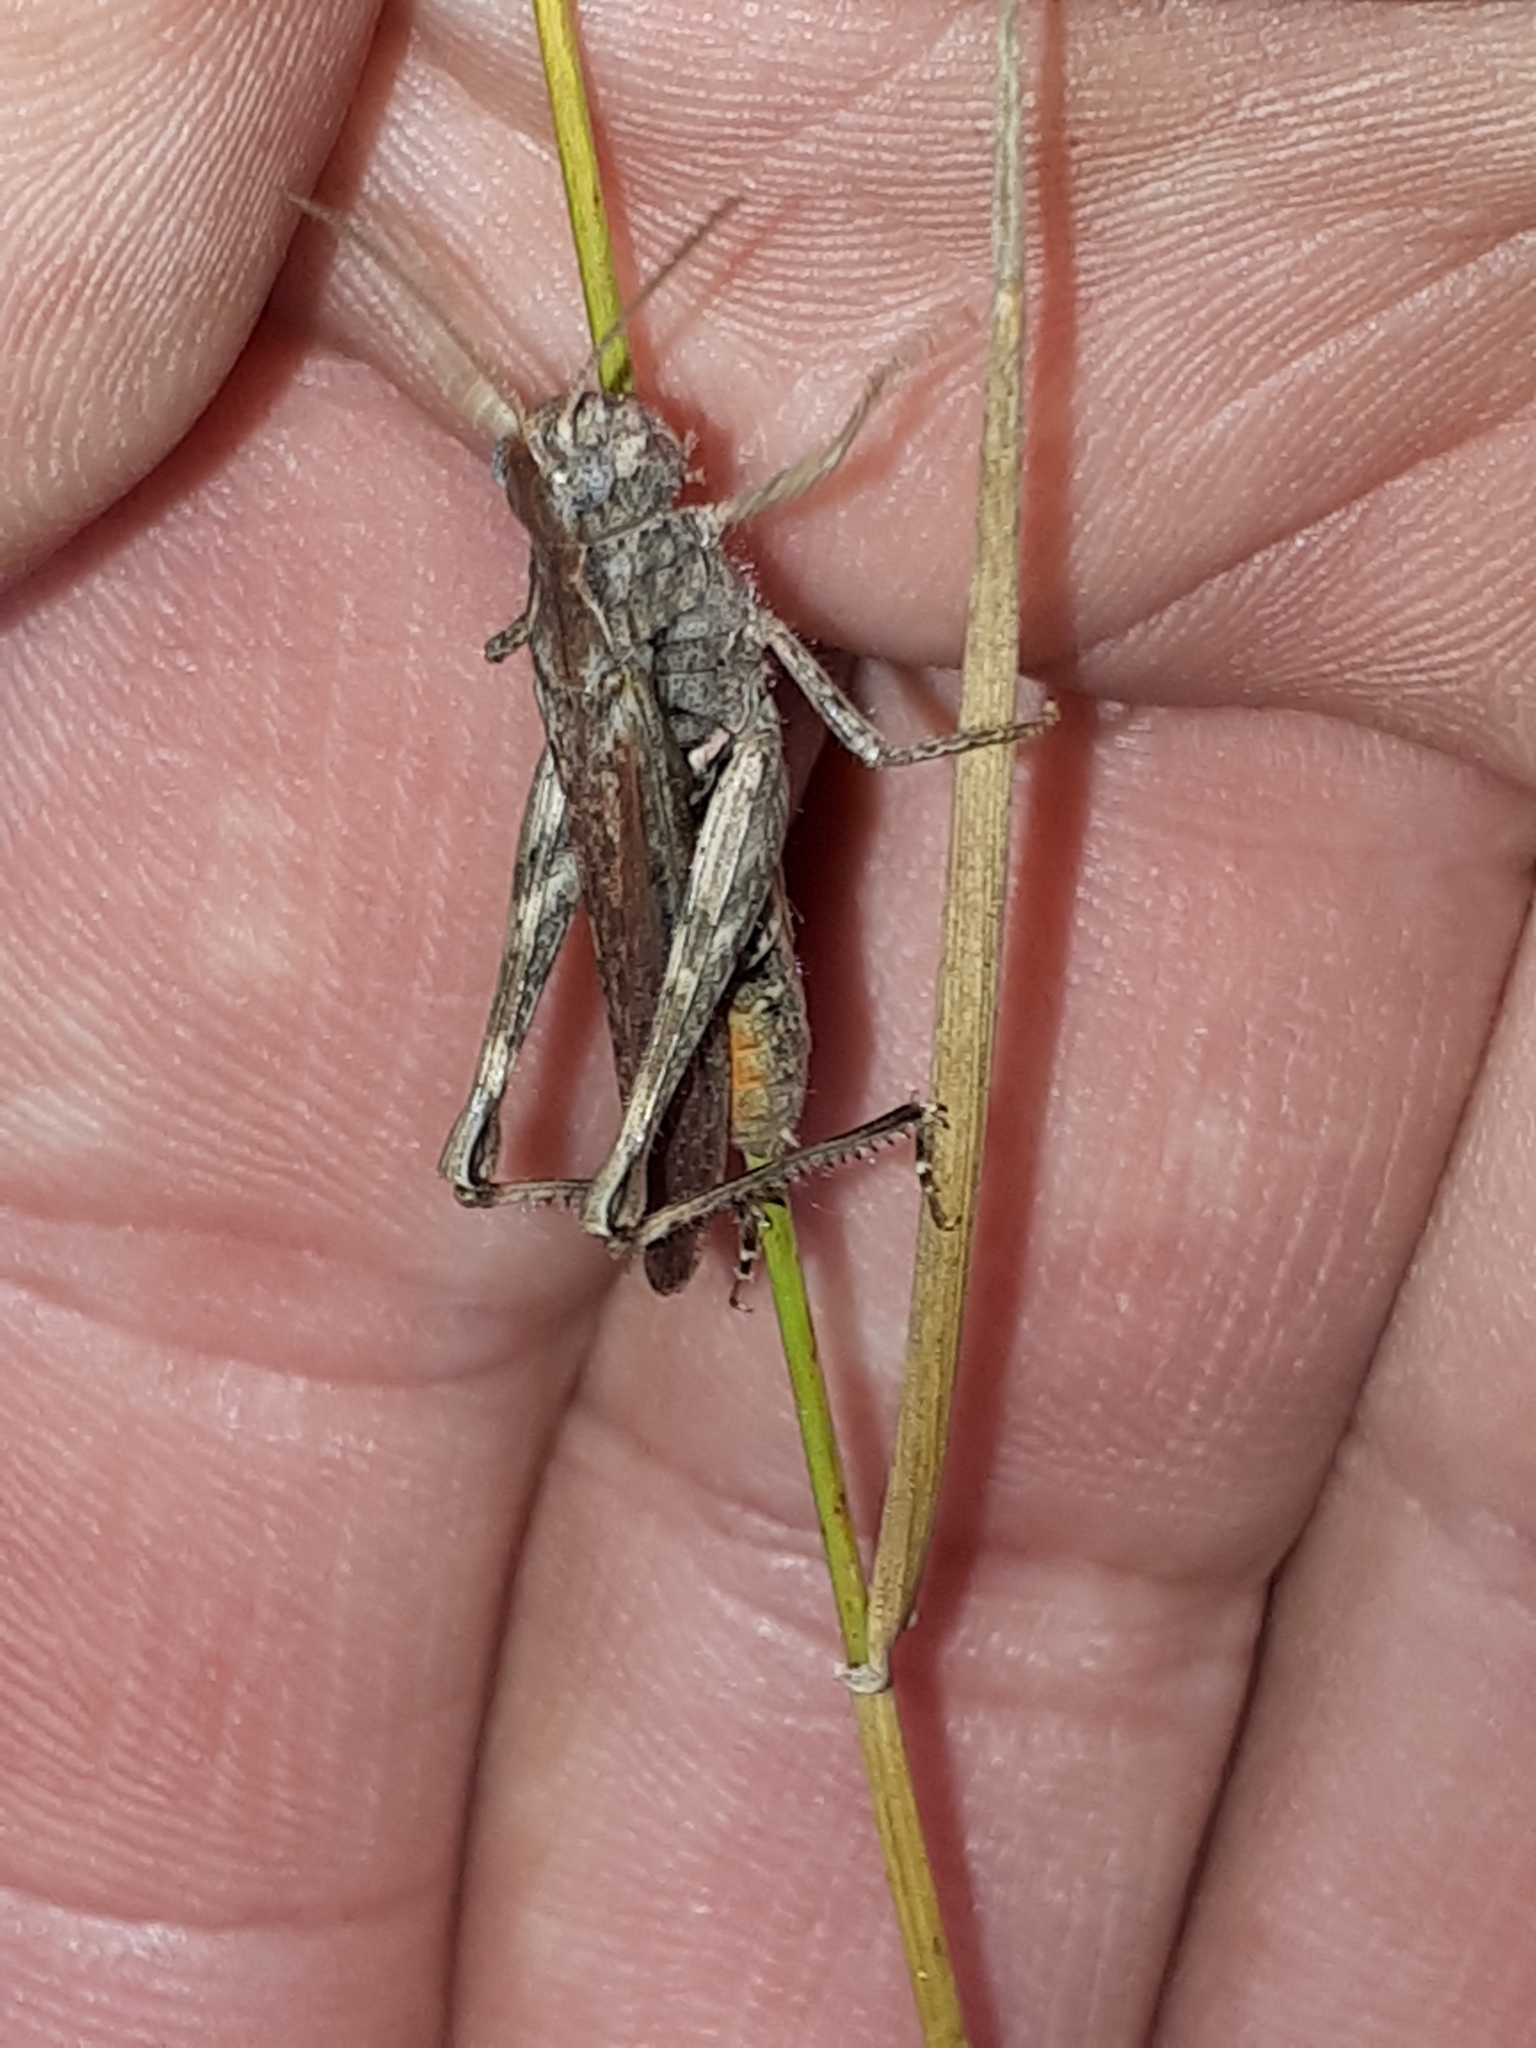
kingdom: Animalia
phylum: Arthropoda
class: Insecta
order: Orthoptera
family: Acrididae
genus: Chorthippus
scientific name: Chorthippus brunneus
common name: Field grasshopper
